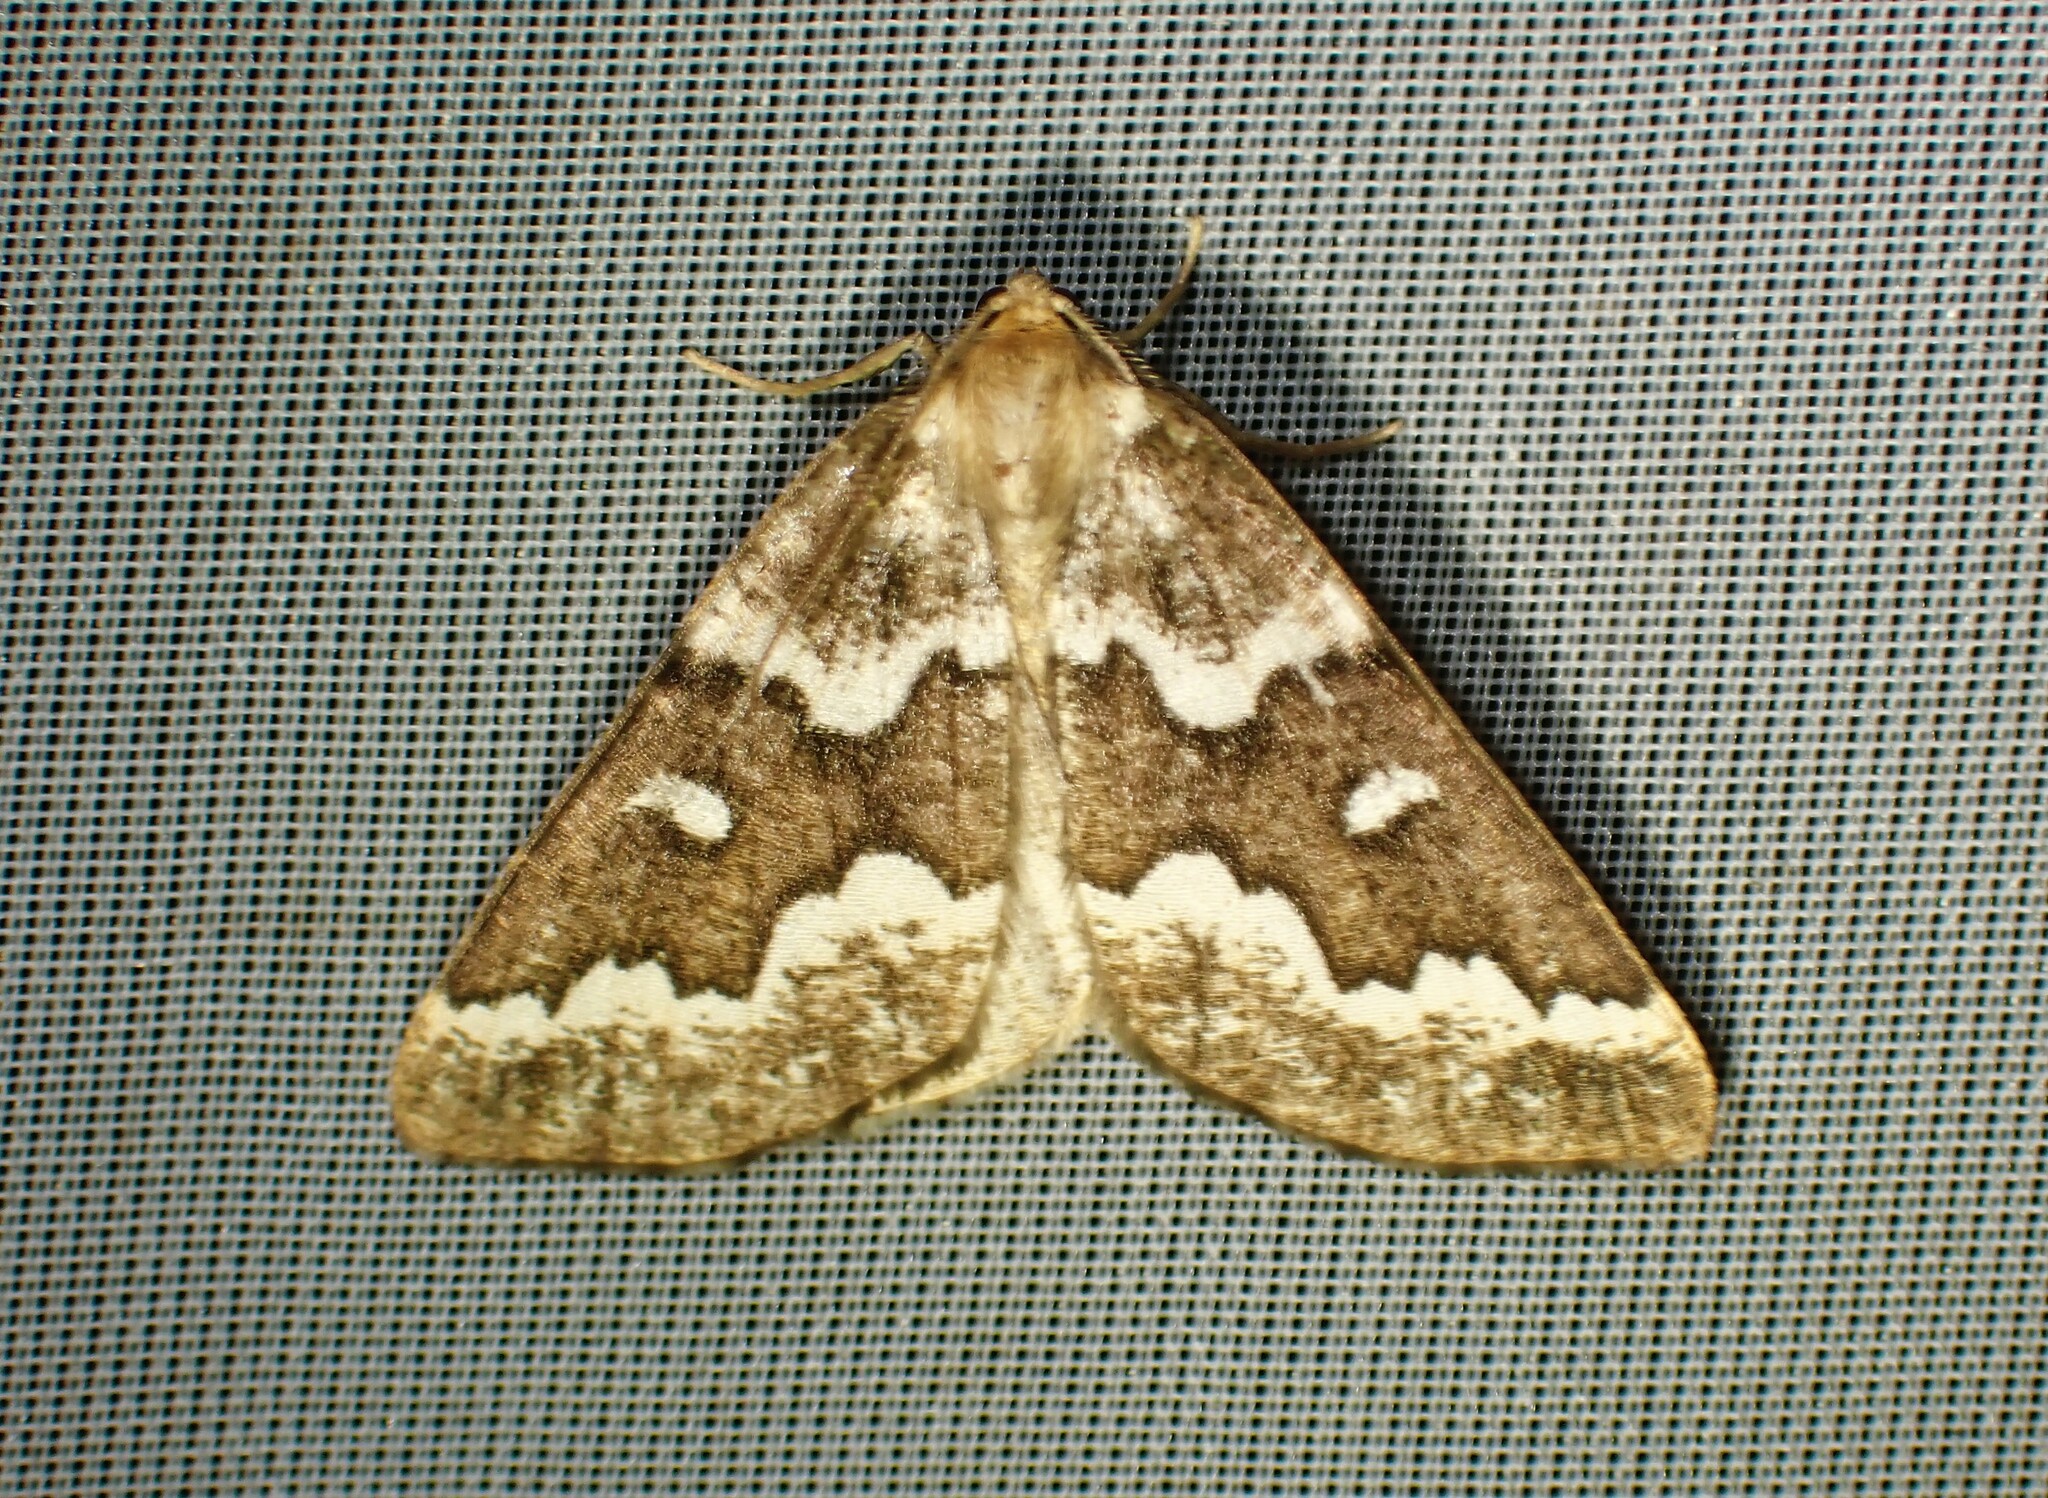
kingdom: Animalia
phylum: Arthropoda
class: Insecta
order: Lepidoptera
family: Geometridae
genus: Caripeta
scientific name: Caripeta divisata
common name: Gray spruce looper
